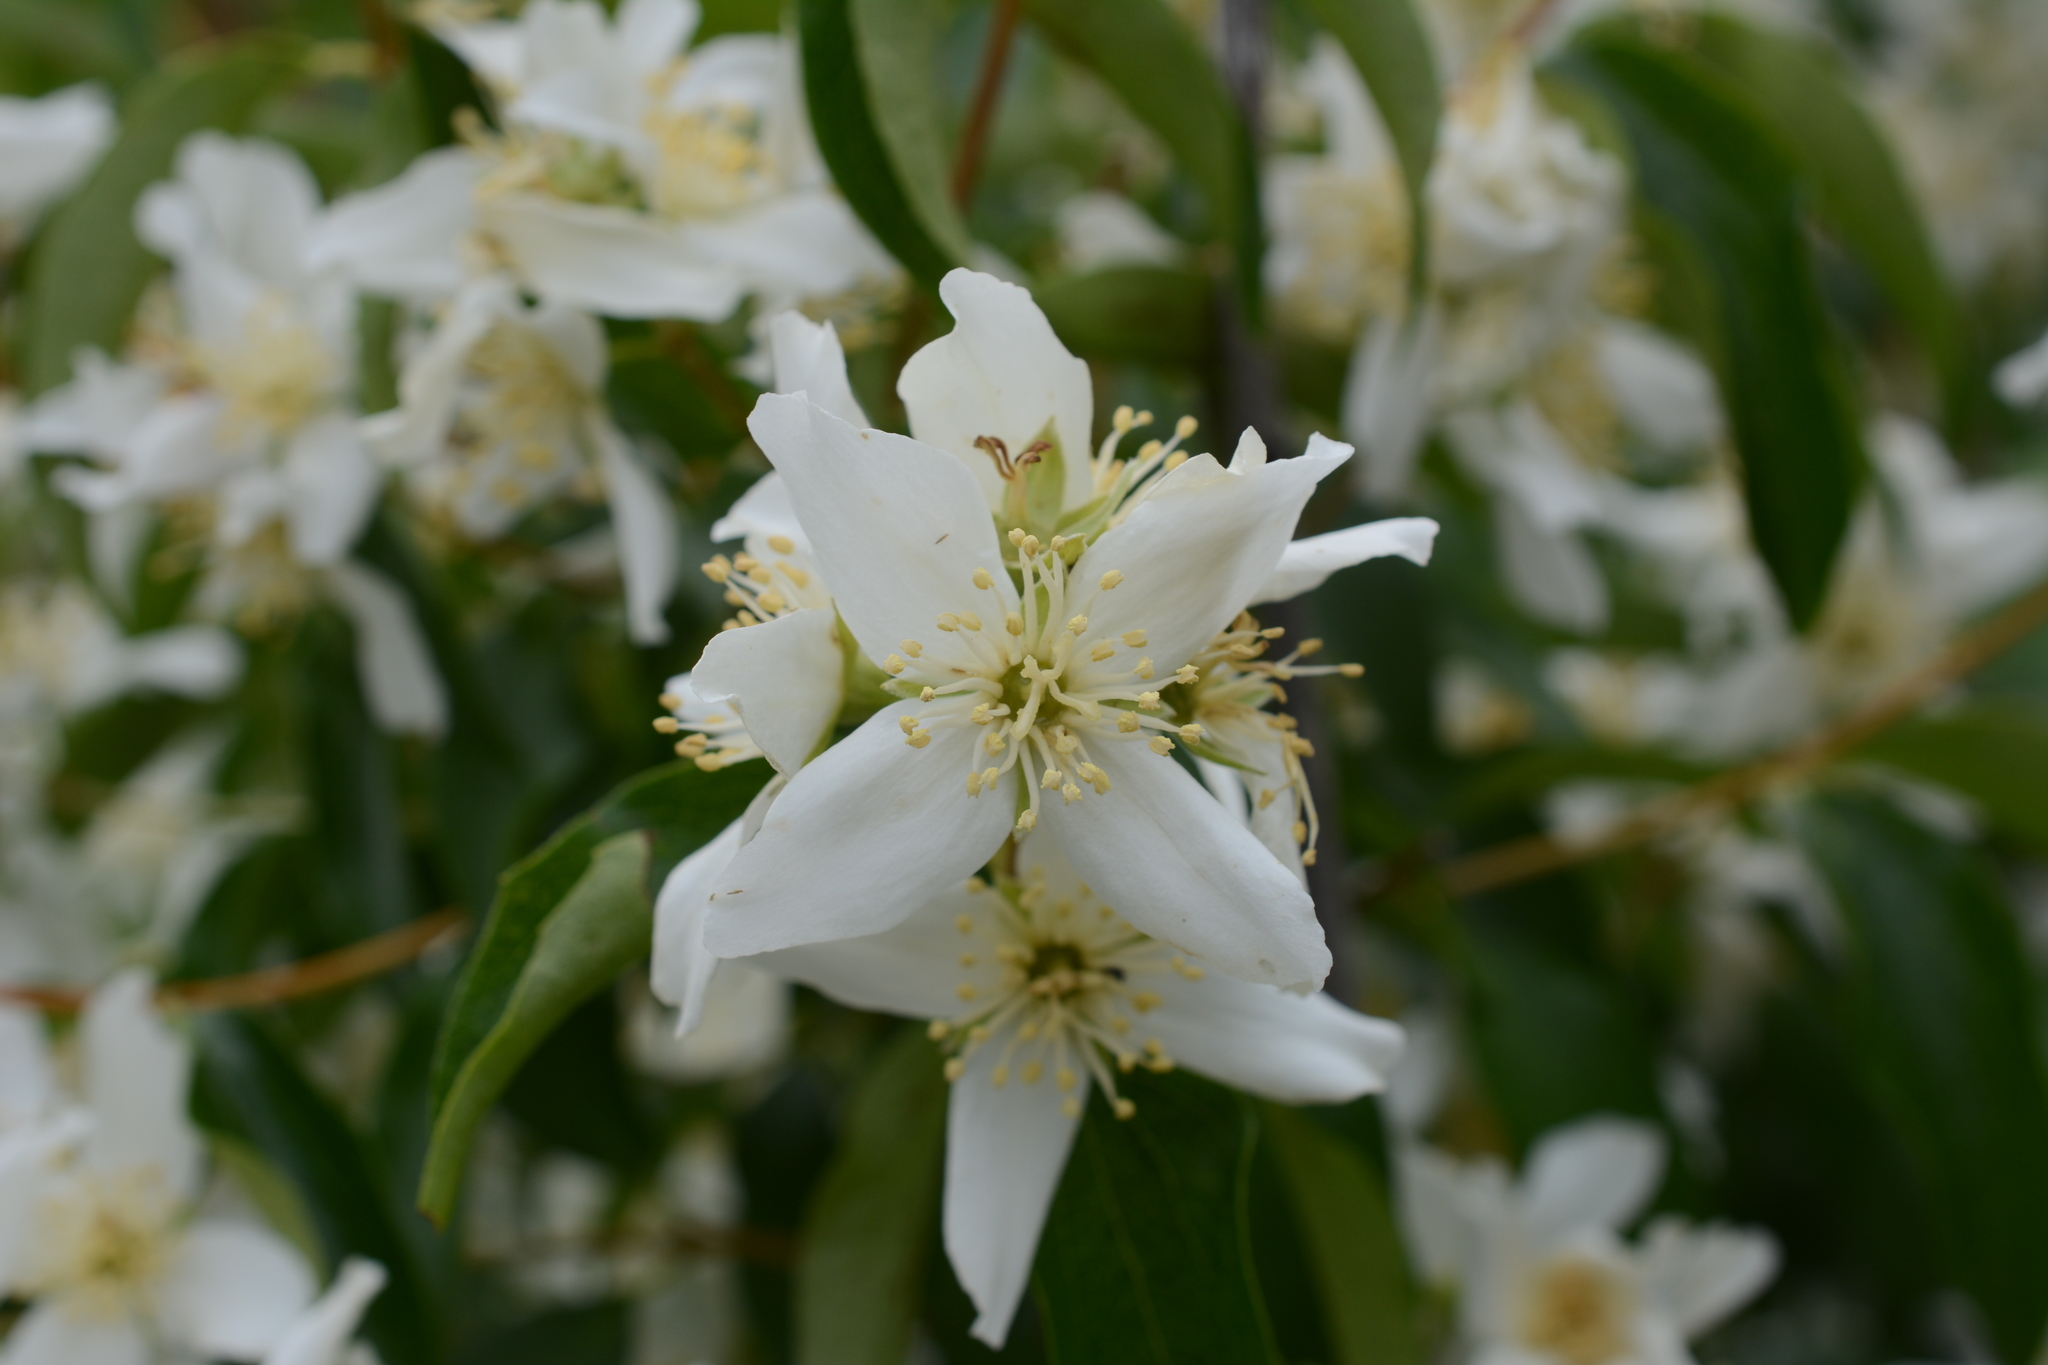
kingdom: Plantae
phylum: Tracheophyta
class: Magnoliopsida
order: Cornales
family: Hydrangeaceae
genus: Philadelphus
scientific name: Philadelphus lewisii
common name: Lewis's mock orange
